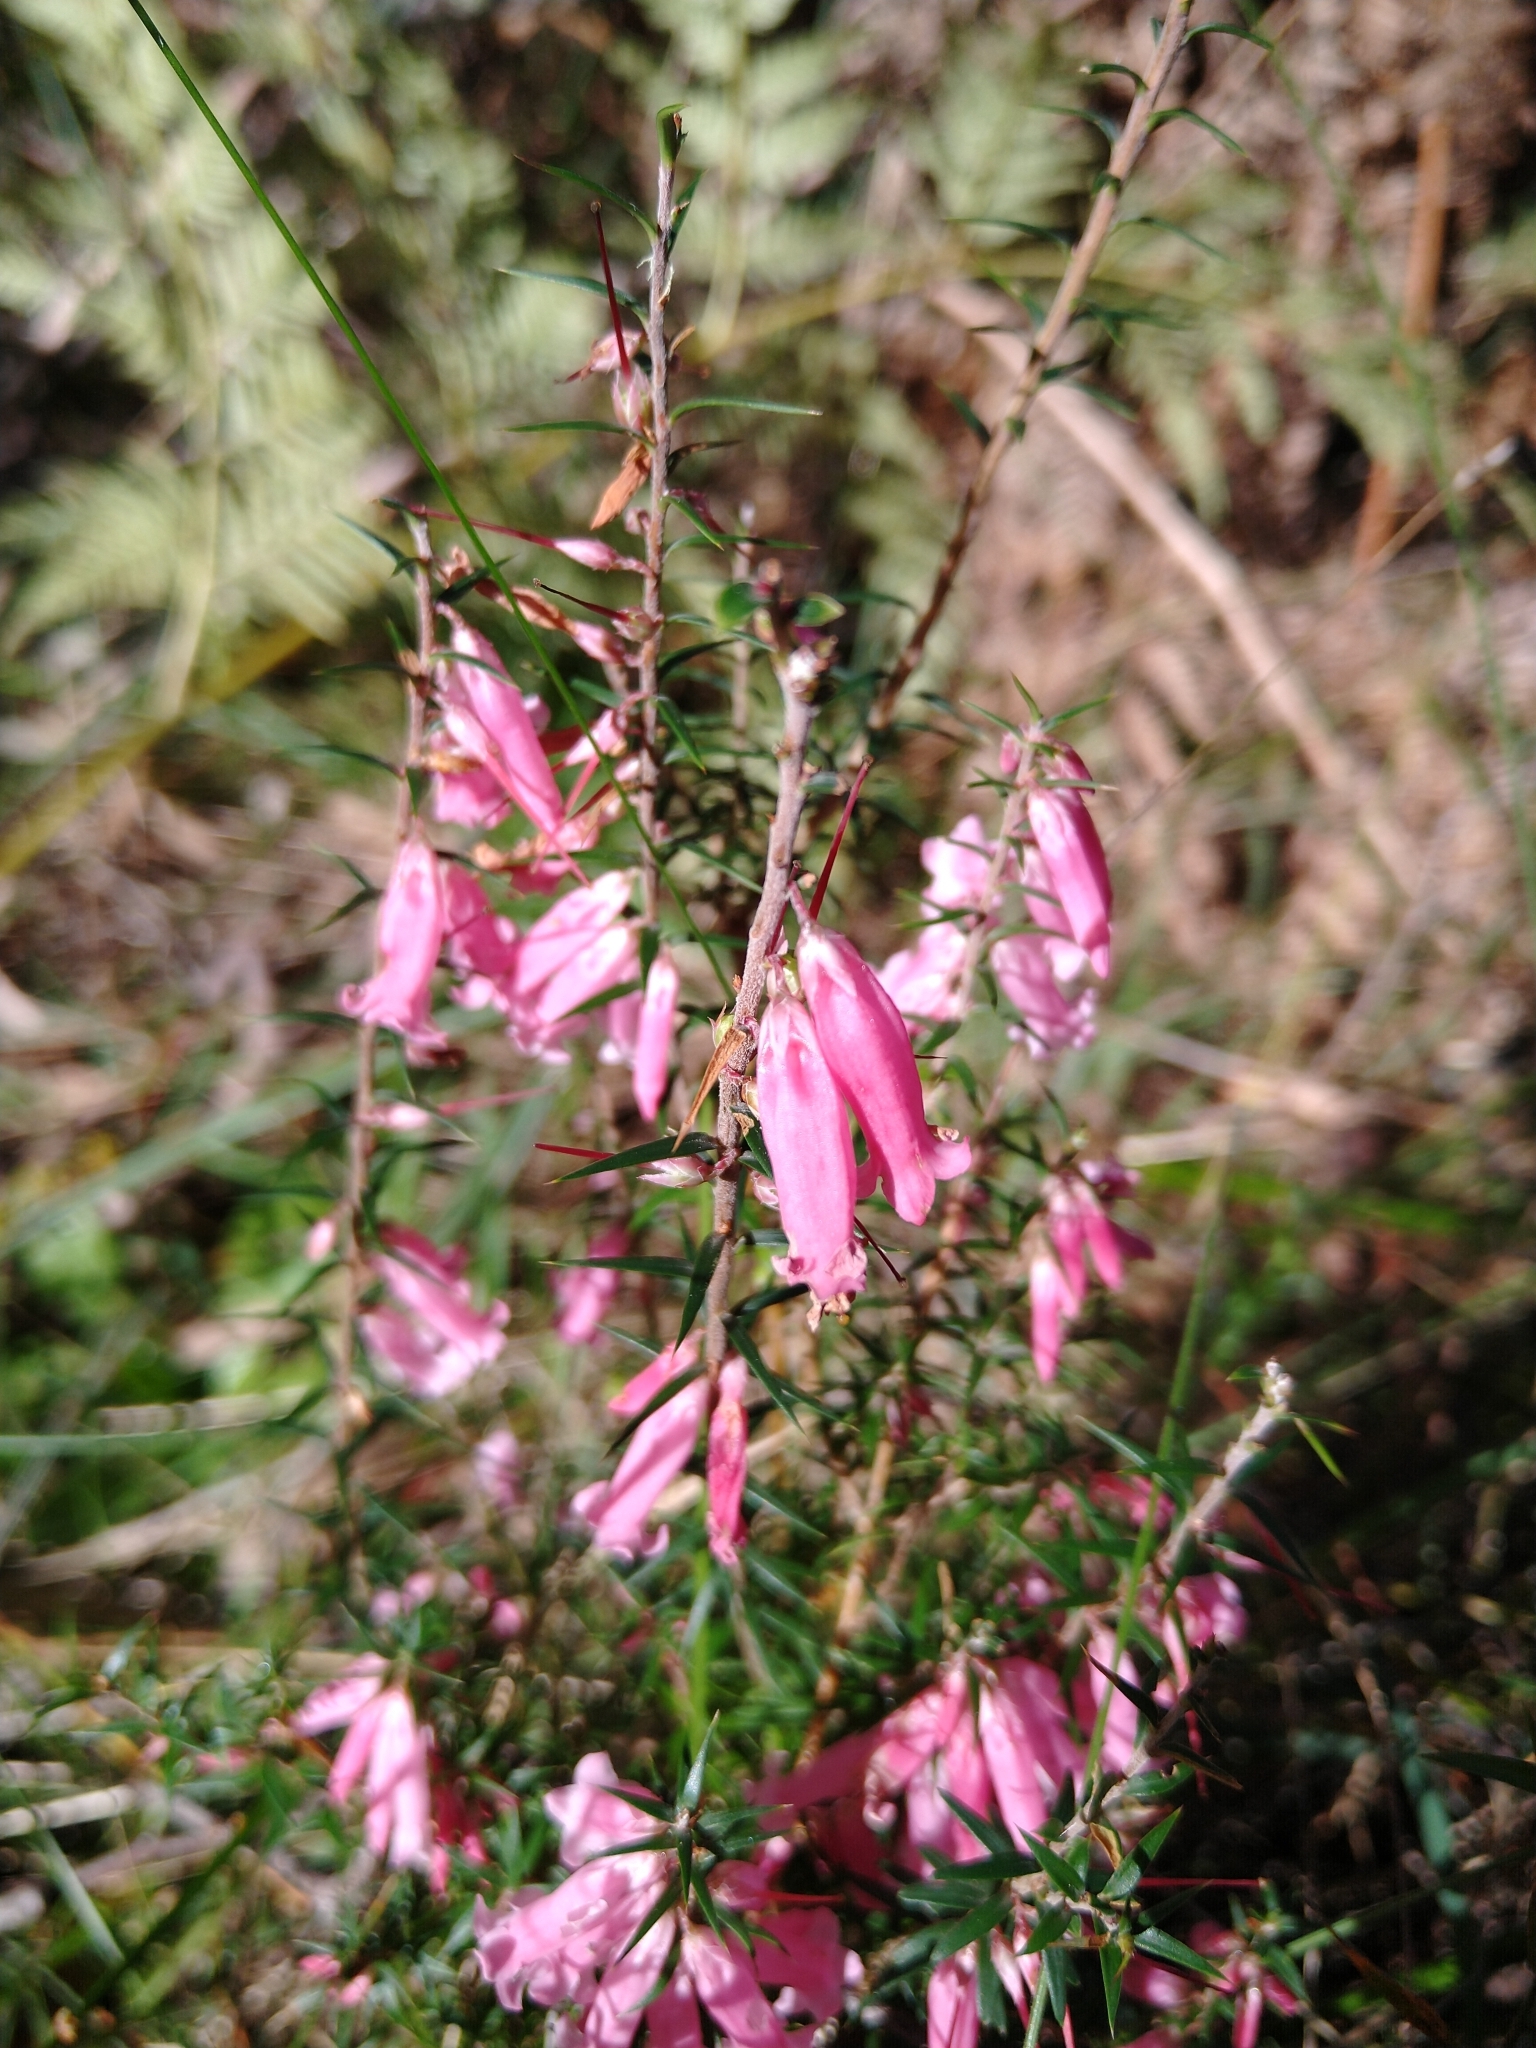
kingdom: Plantae
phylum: Tracheophyta
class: Magnoliopsida
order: Ericales
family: Ericaceae
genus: Epacris
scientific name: Epacris impressa
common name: Common-heath
